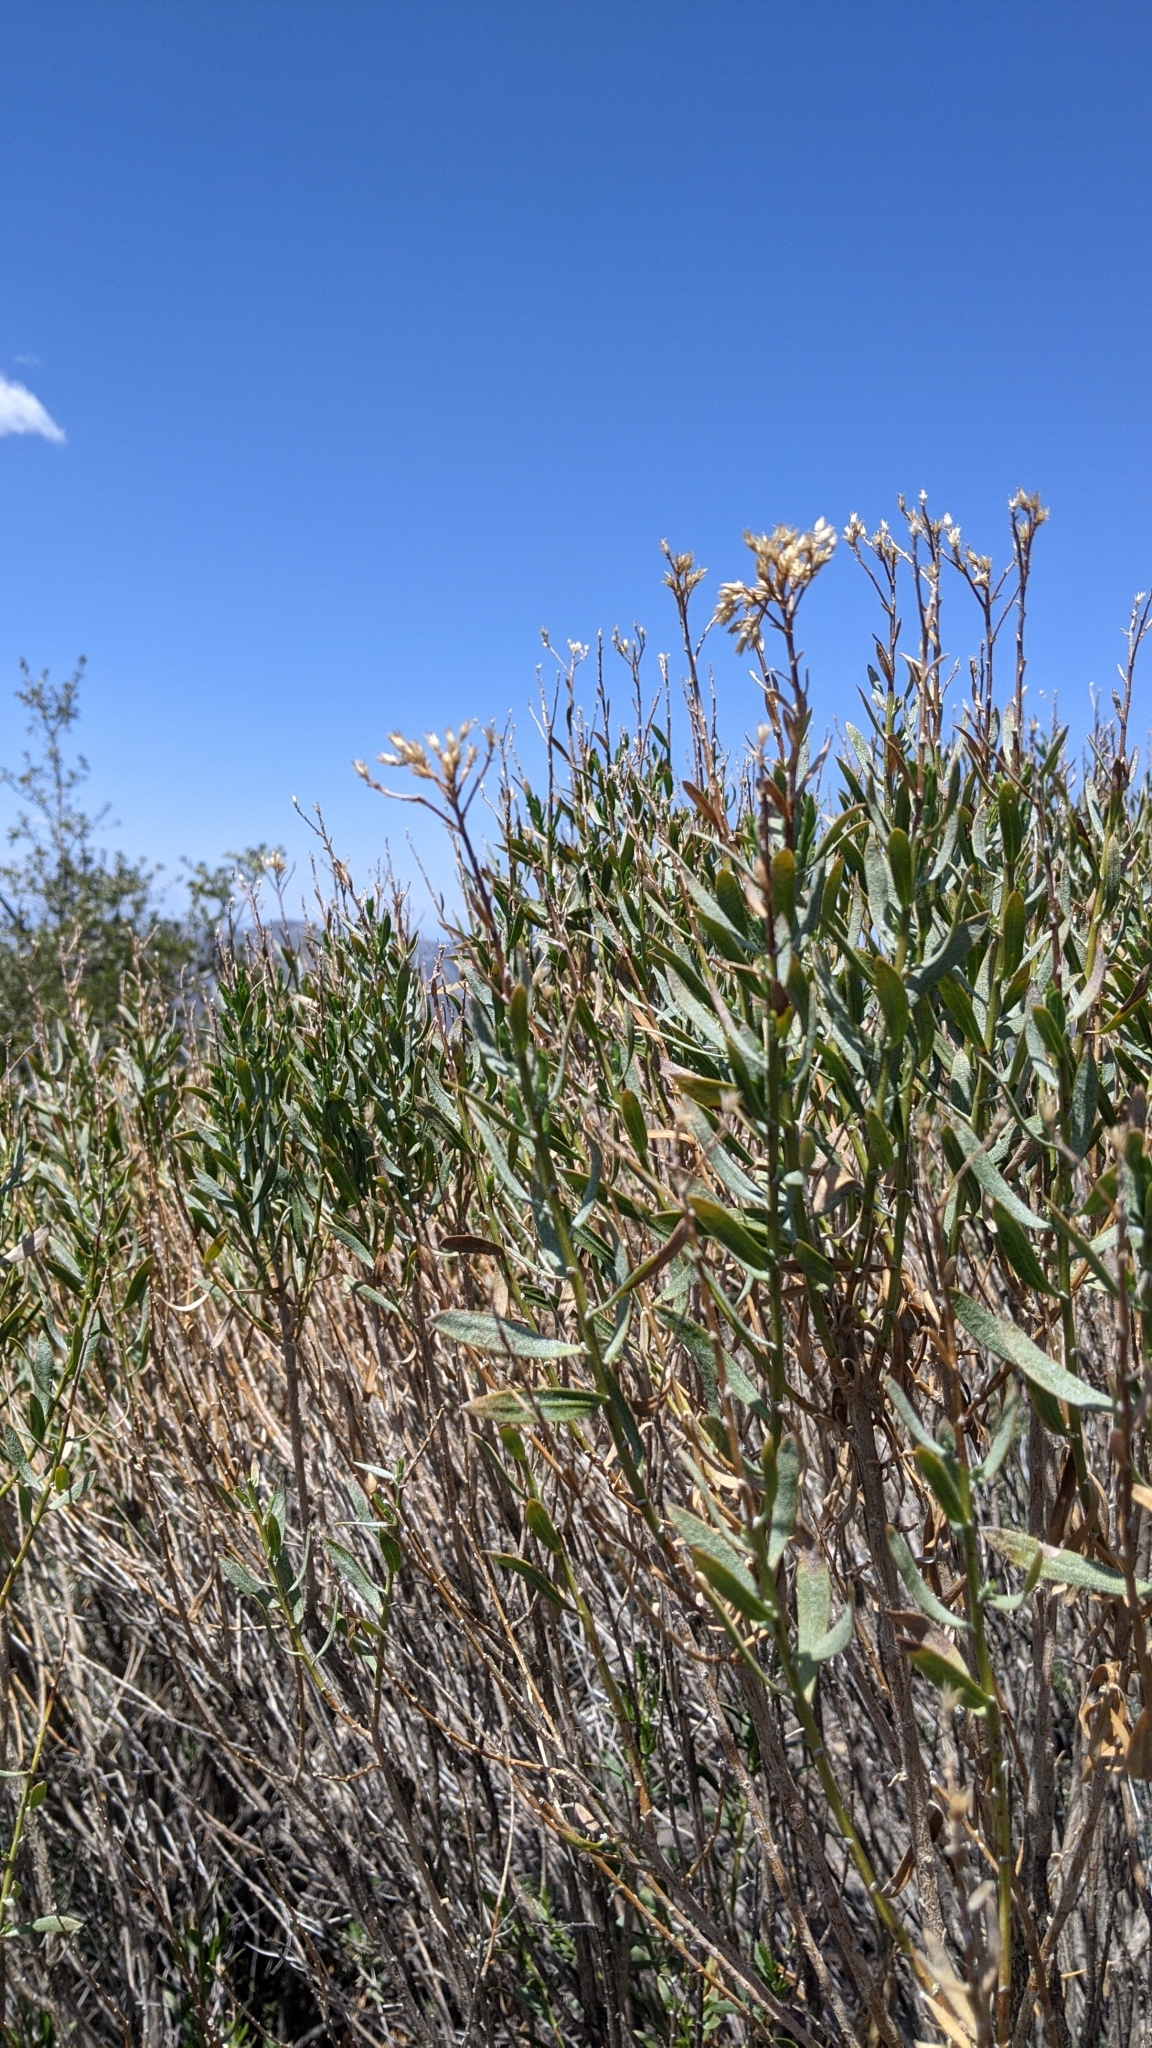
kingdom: Plantae
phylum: Tracheophyta
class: Magnoliopsida
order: Asterales
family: Asteraceae
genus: Ericameria
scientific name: Ericameria parishii
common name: Parish's goldenbush
